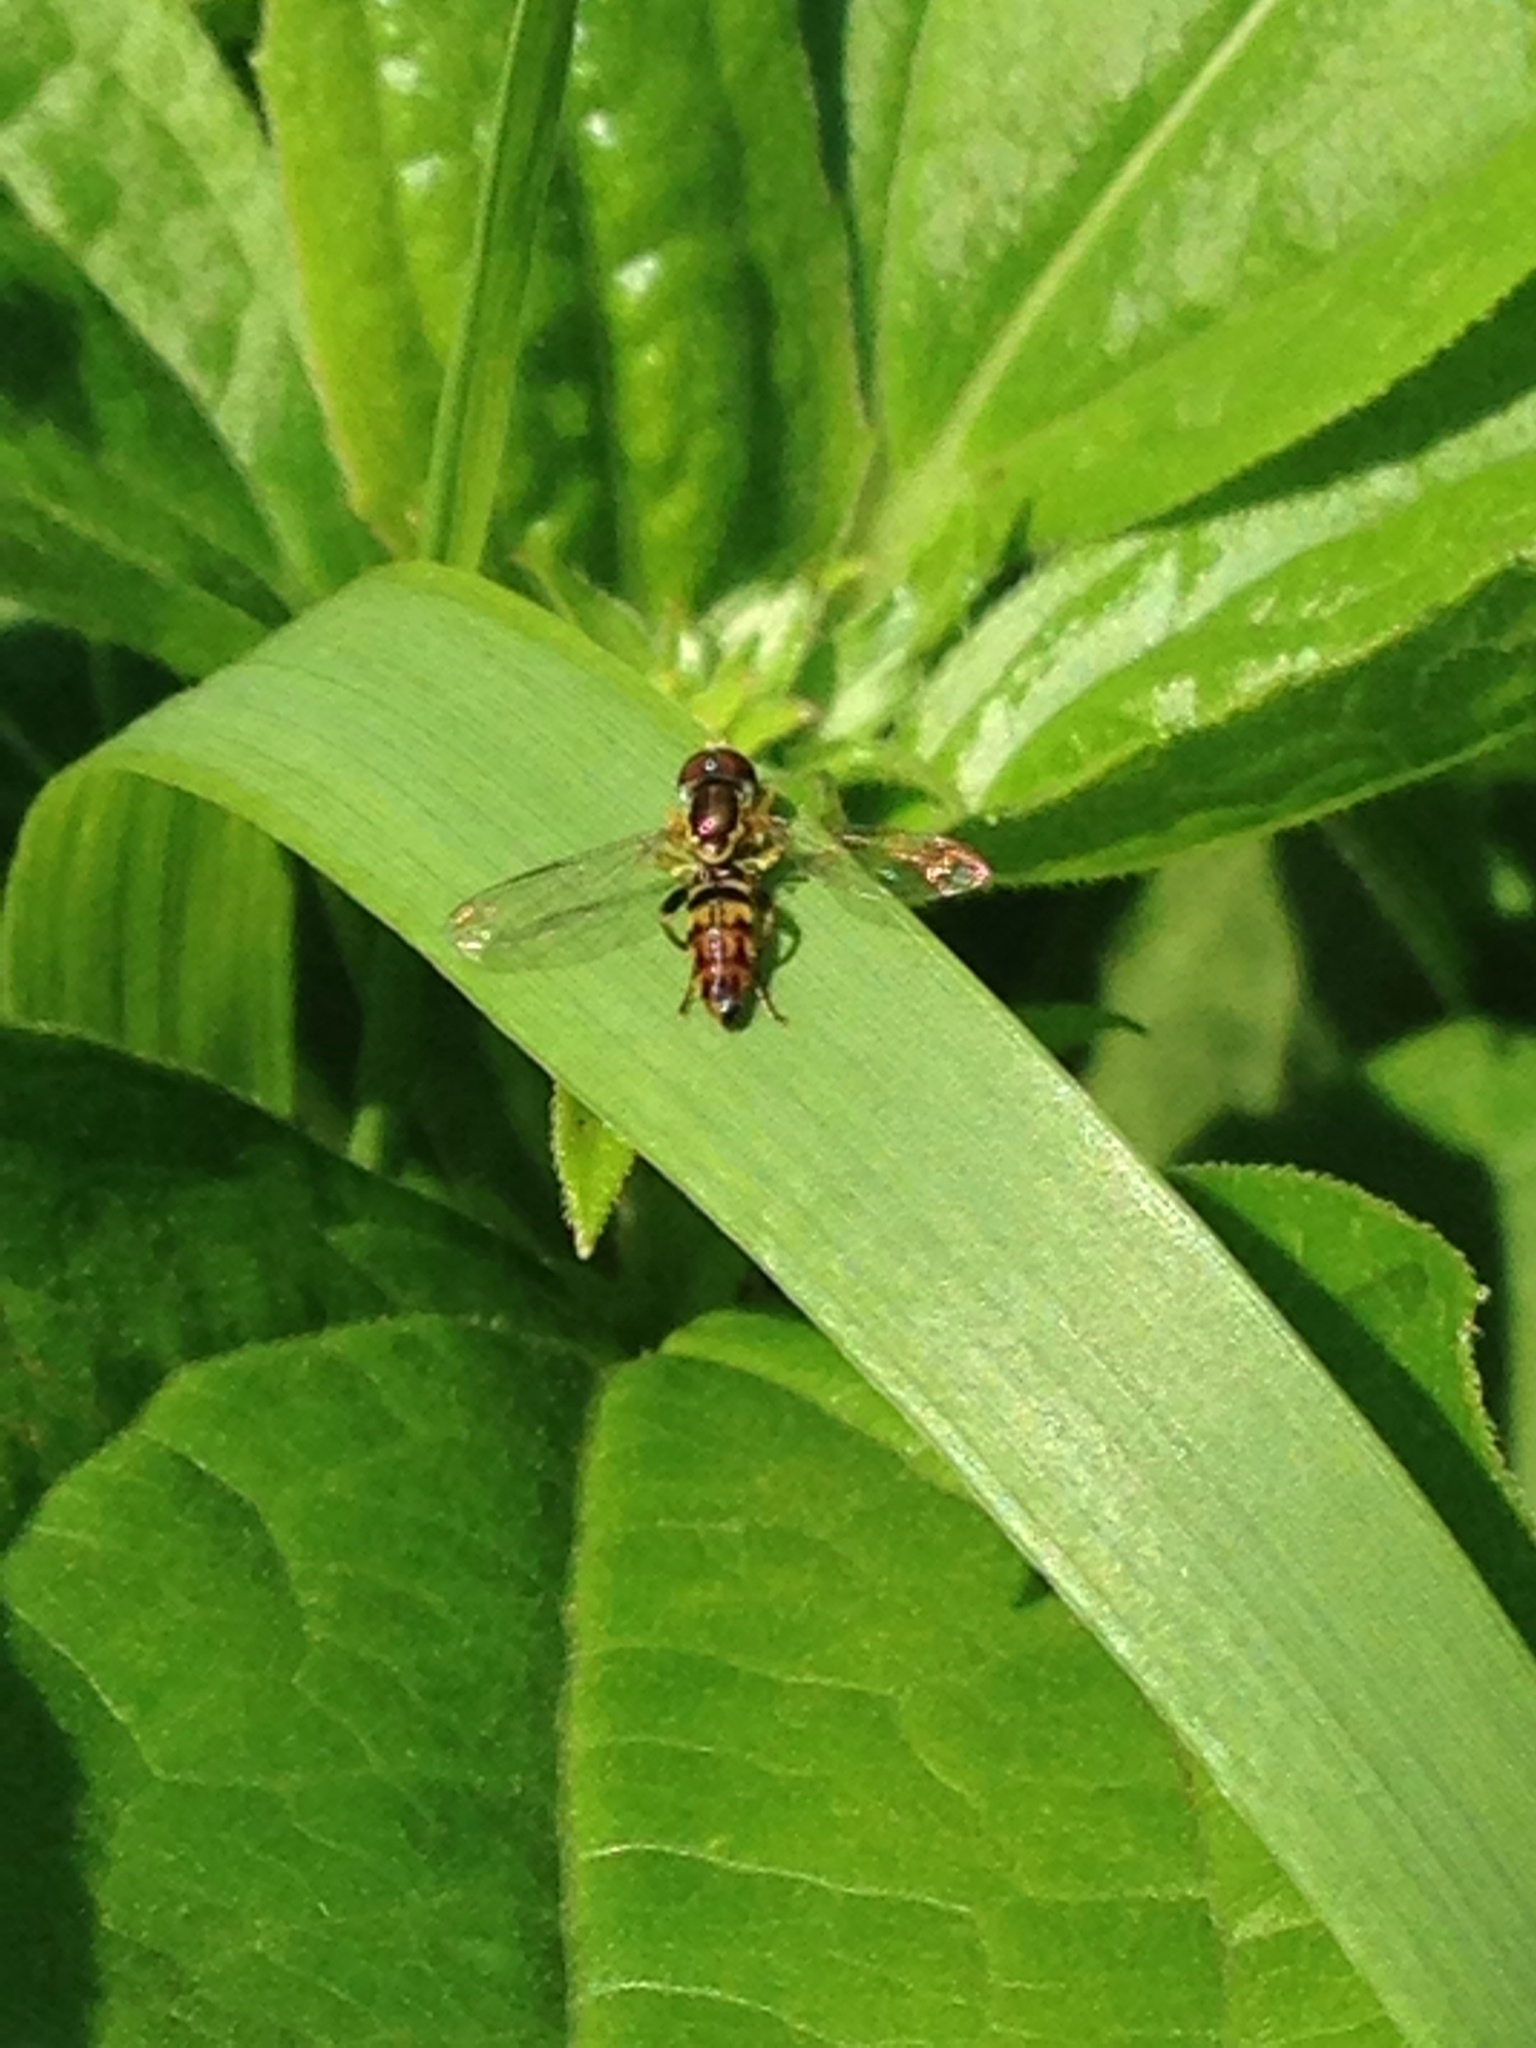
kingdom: Animalia
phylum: Arthropoda
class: Insecta
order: Diptera
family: Syrphidae
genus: Toxomerus
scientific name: Toxomerus geminatus
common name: Eastern calligrapher
